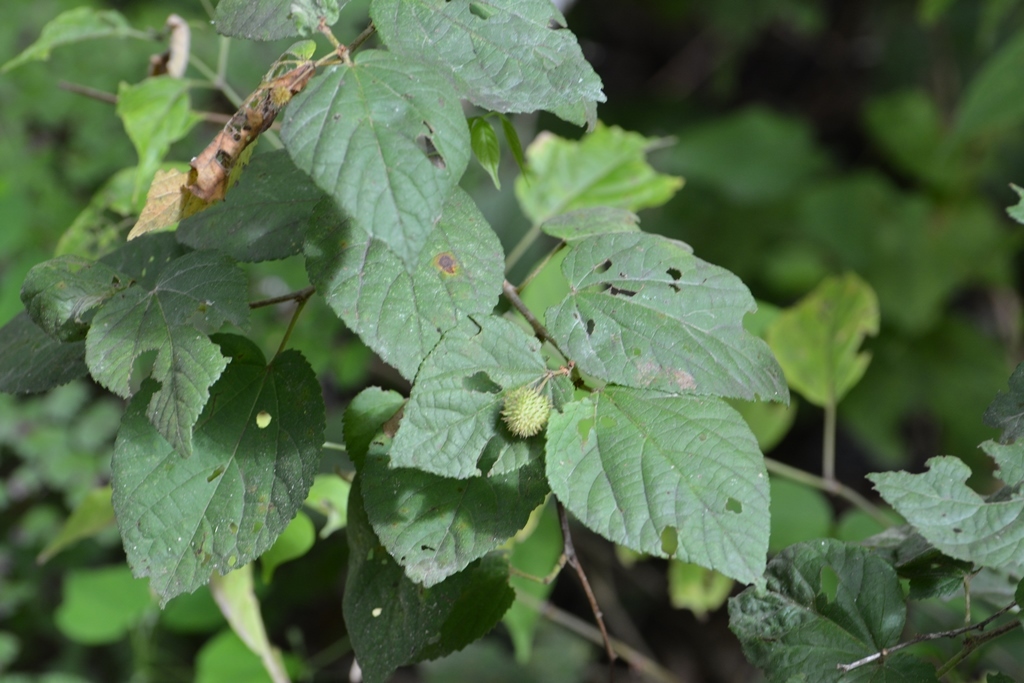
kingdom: Plantae
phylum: Tracheophyta
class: Magnoliopsida
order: Malvales
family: Malvaceae
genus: Ayenia
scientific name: Ayenia micrantha
